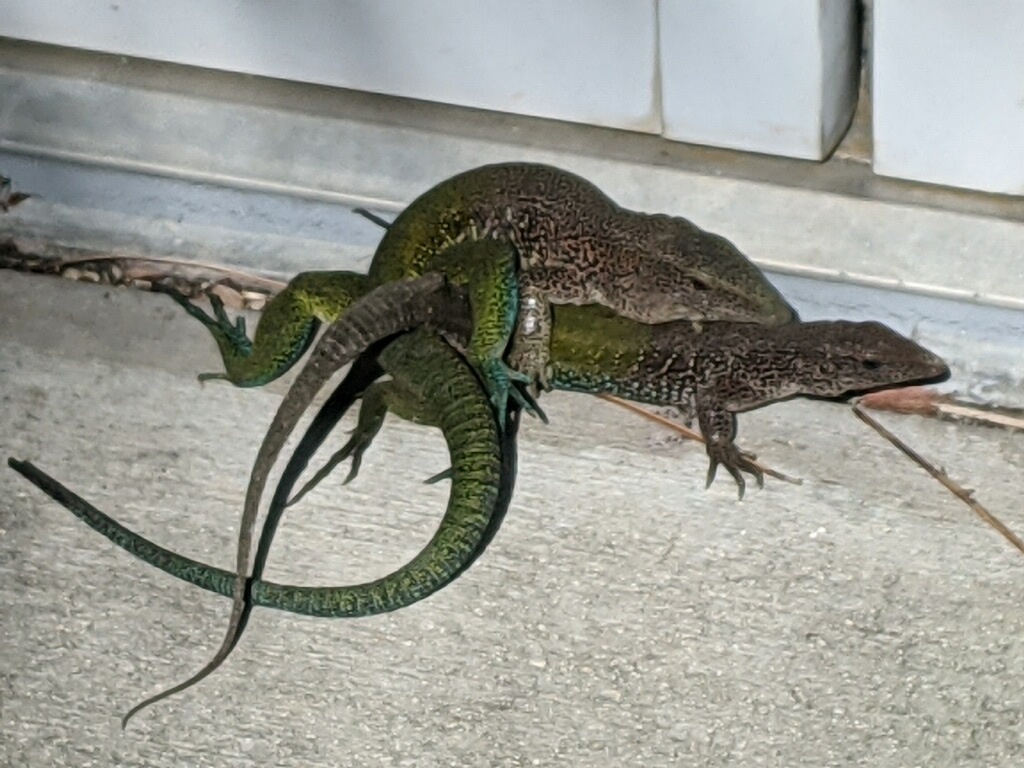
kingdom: Animalia
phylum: Chordata
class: Squamata
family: Teiidae
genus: Ameiva
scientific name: Ameiva ameiva
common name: Giant ameiva
